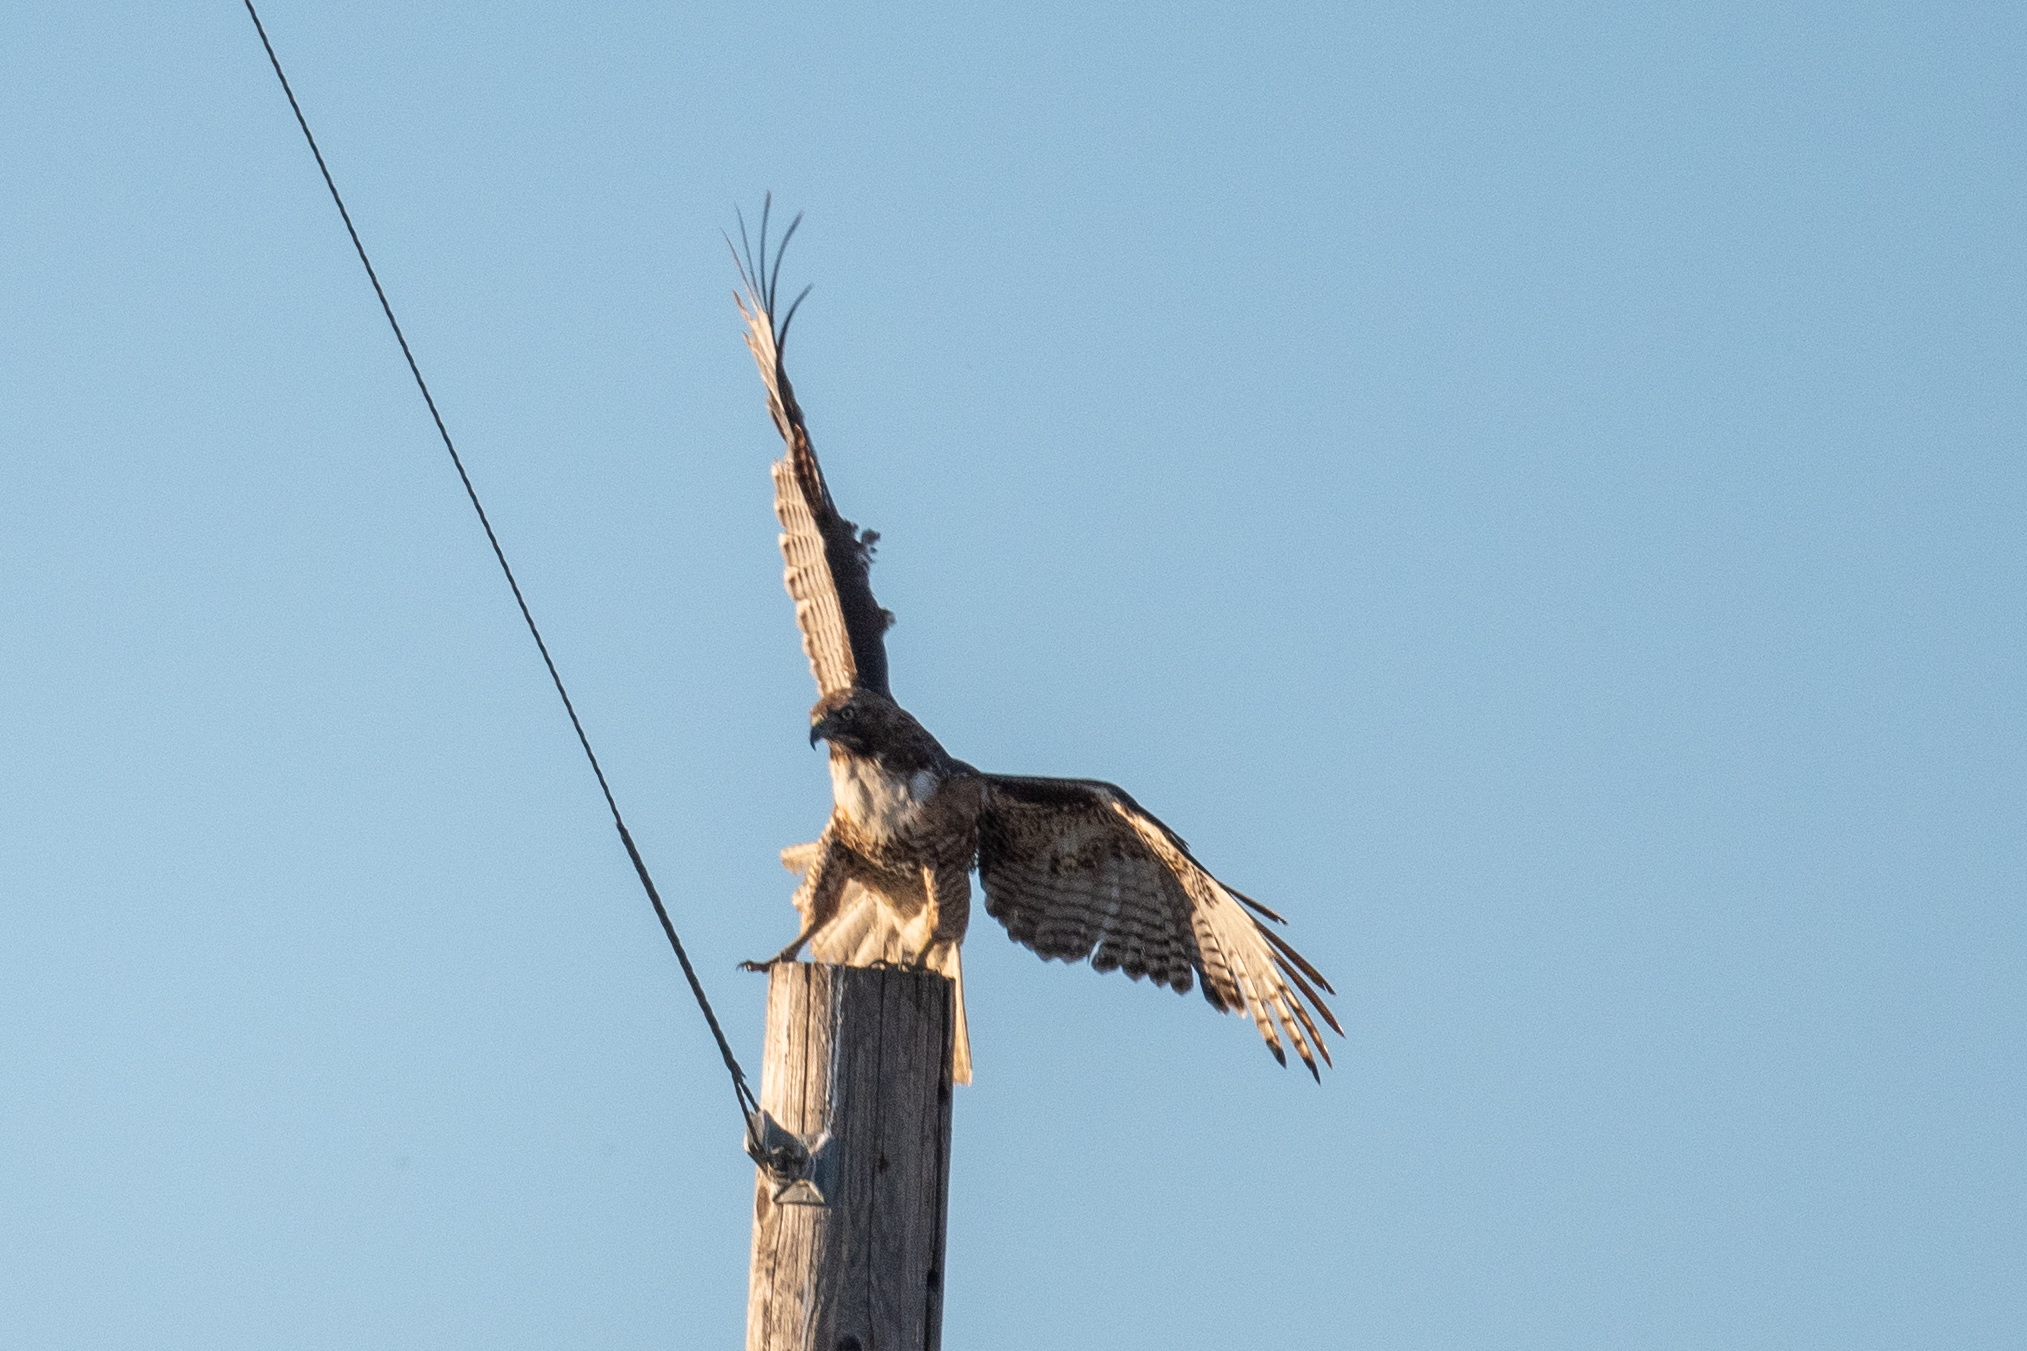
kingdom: Animalia
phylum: Chordata
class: Aves
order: Accipitriformes
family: Accipitridae
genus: Buteo
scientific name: Buteo jamaicensis
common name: Red-tailed hawk
